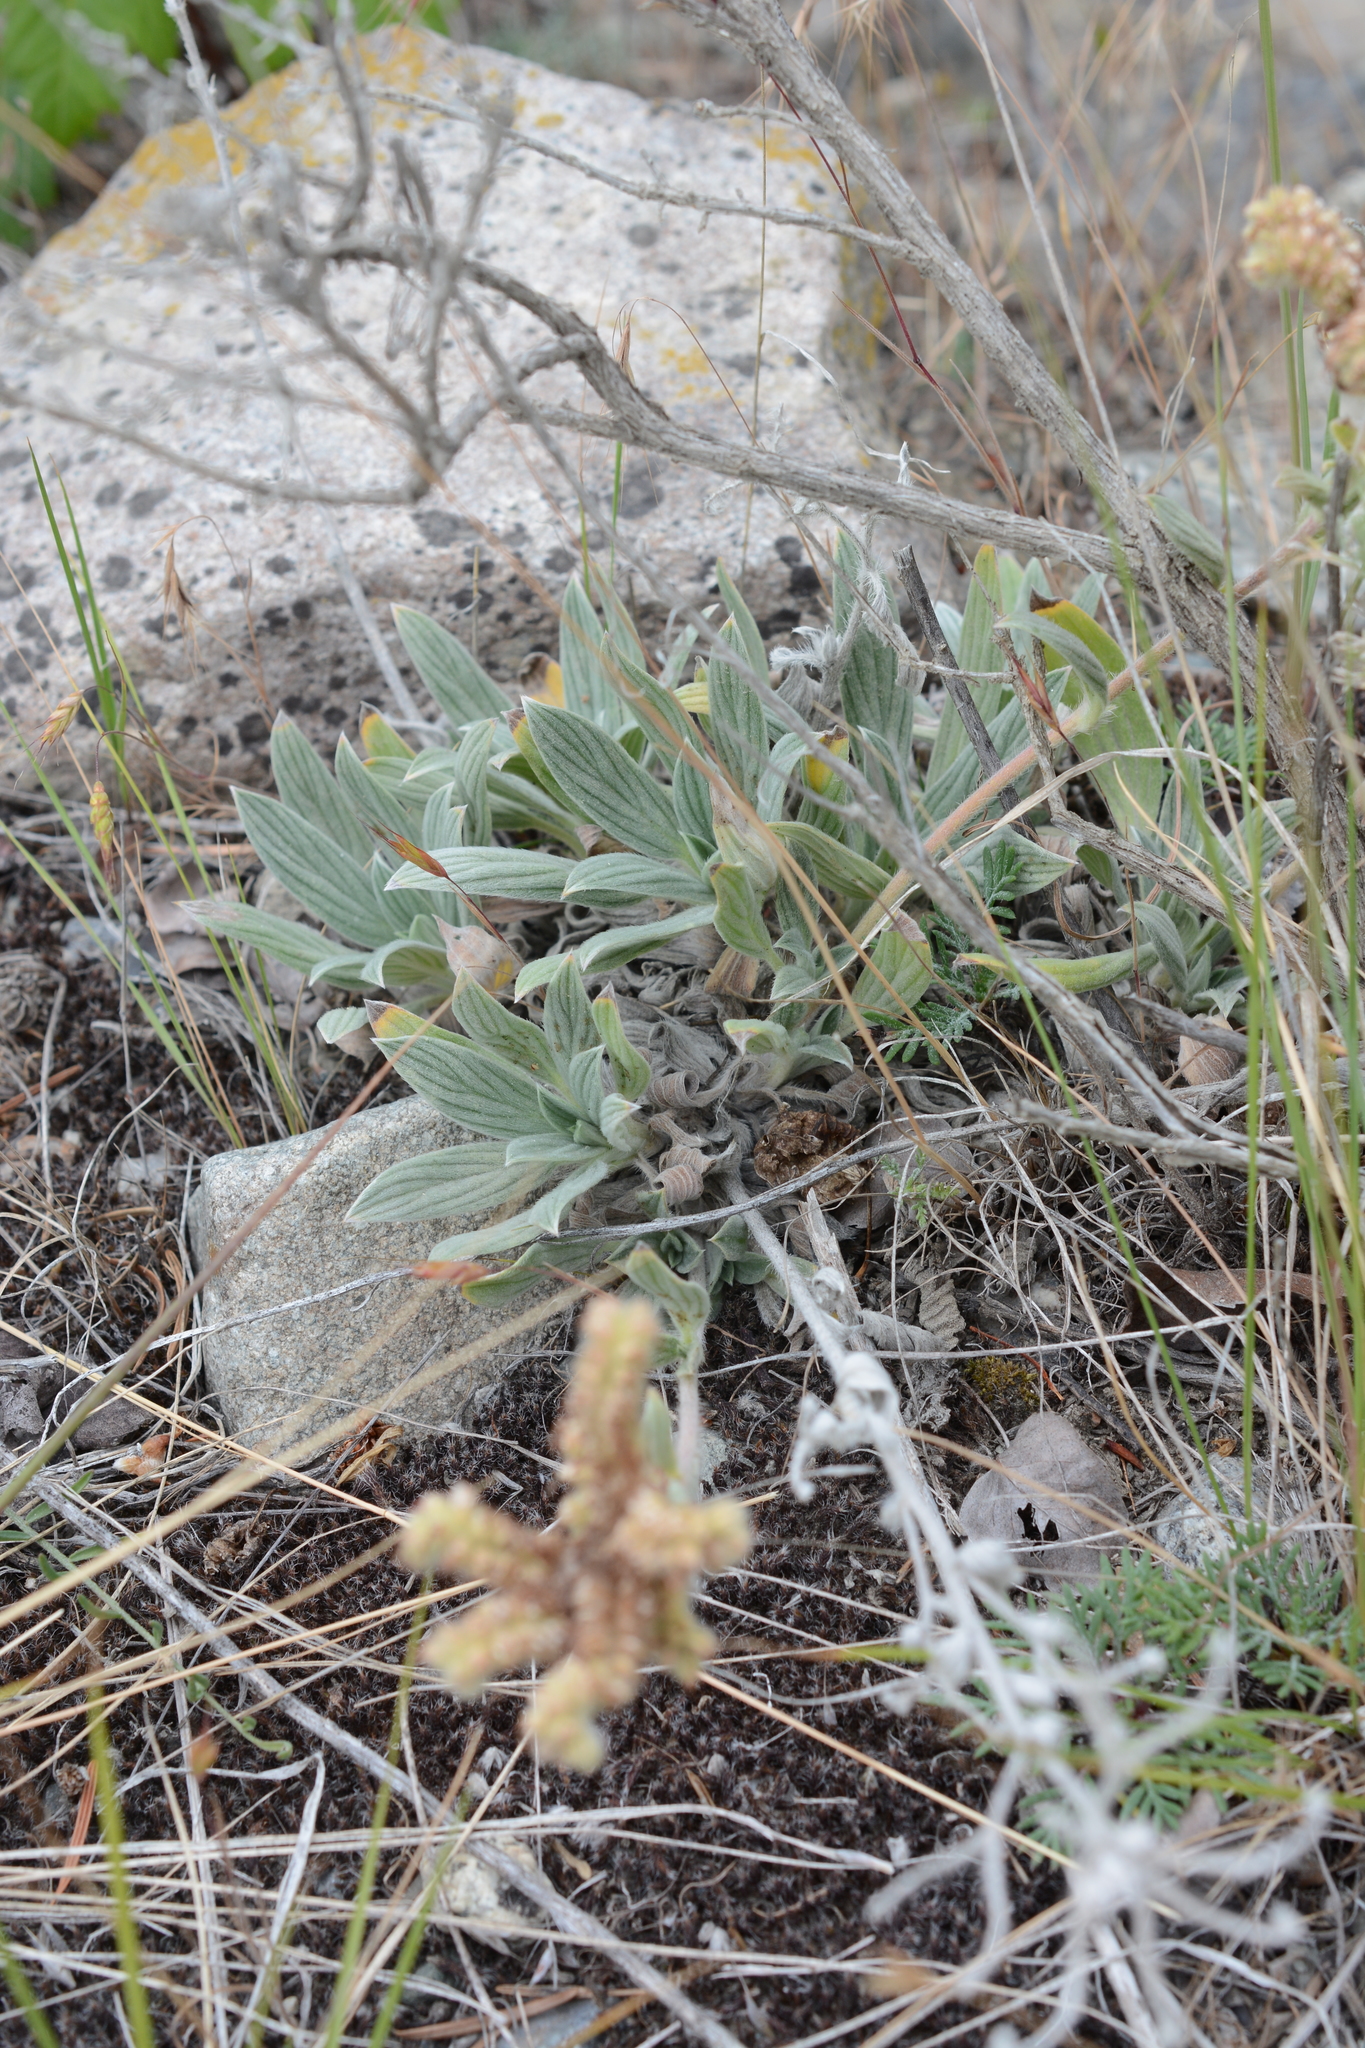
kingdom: Plantae
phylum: Tracheophyta
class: Magnoliopsida
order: Boraginales
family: Hydrophyllaceae
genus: Phacelia
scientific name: Phacelia hastata
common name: Silver-leaved phacelia
